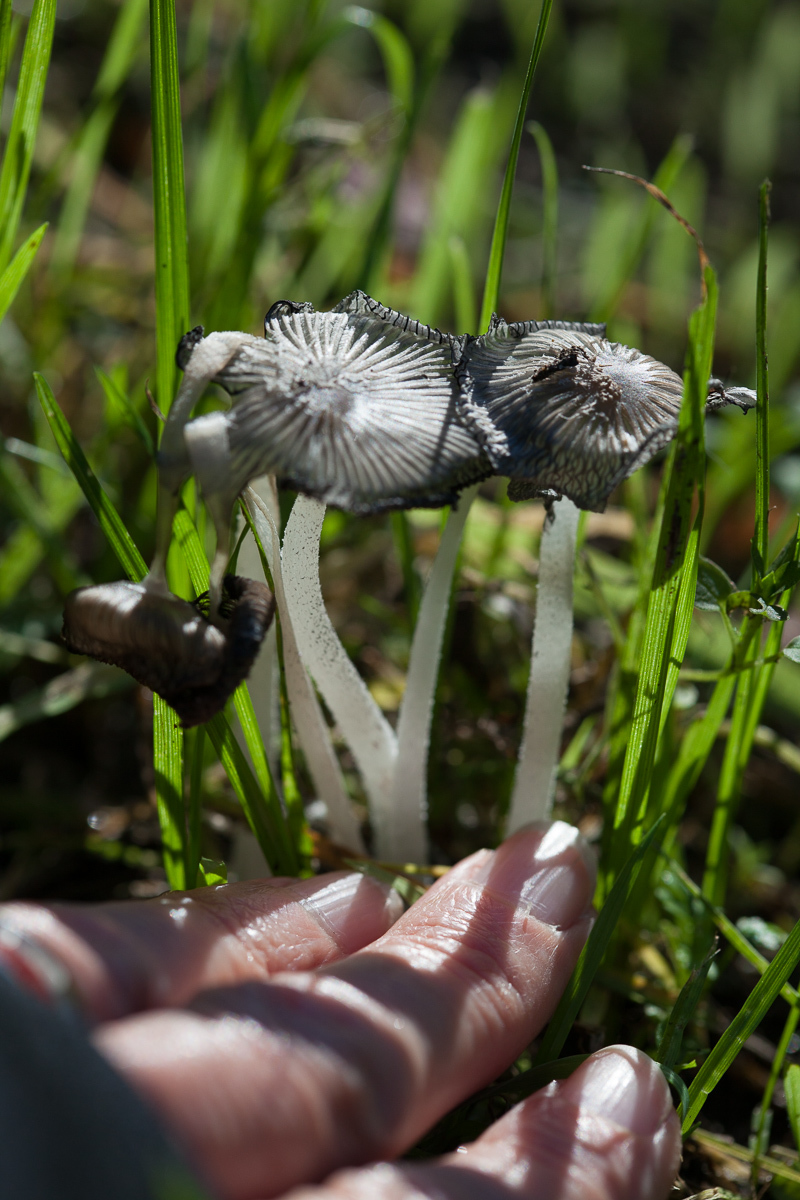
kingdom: Fungi
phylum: Basidiomycota
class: Agaricomycetes
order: Agaricales
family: Psathyrellaceae
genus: Coprinopsis
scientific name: Coprinopsis lagopus
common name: Hare'sfoot inkcap
